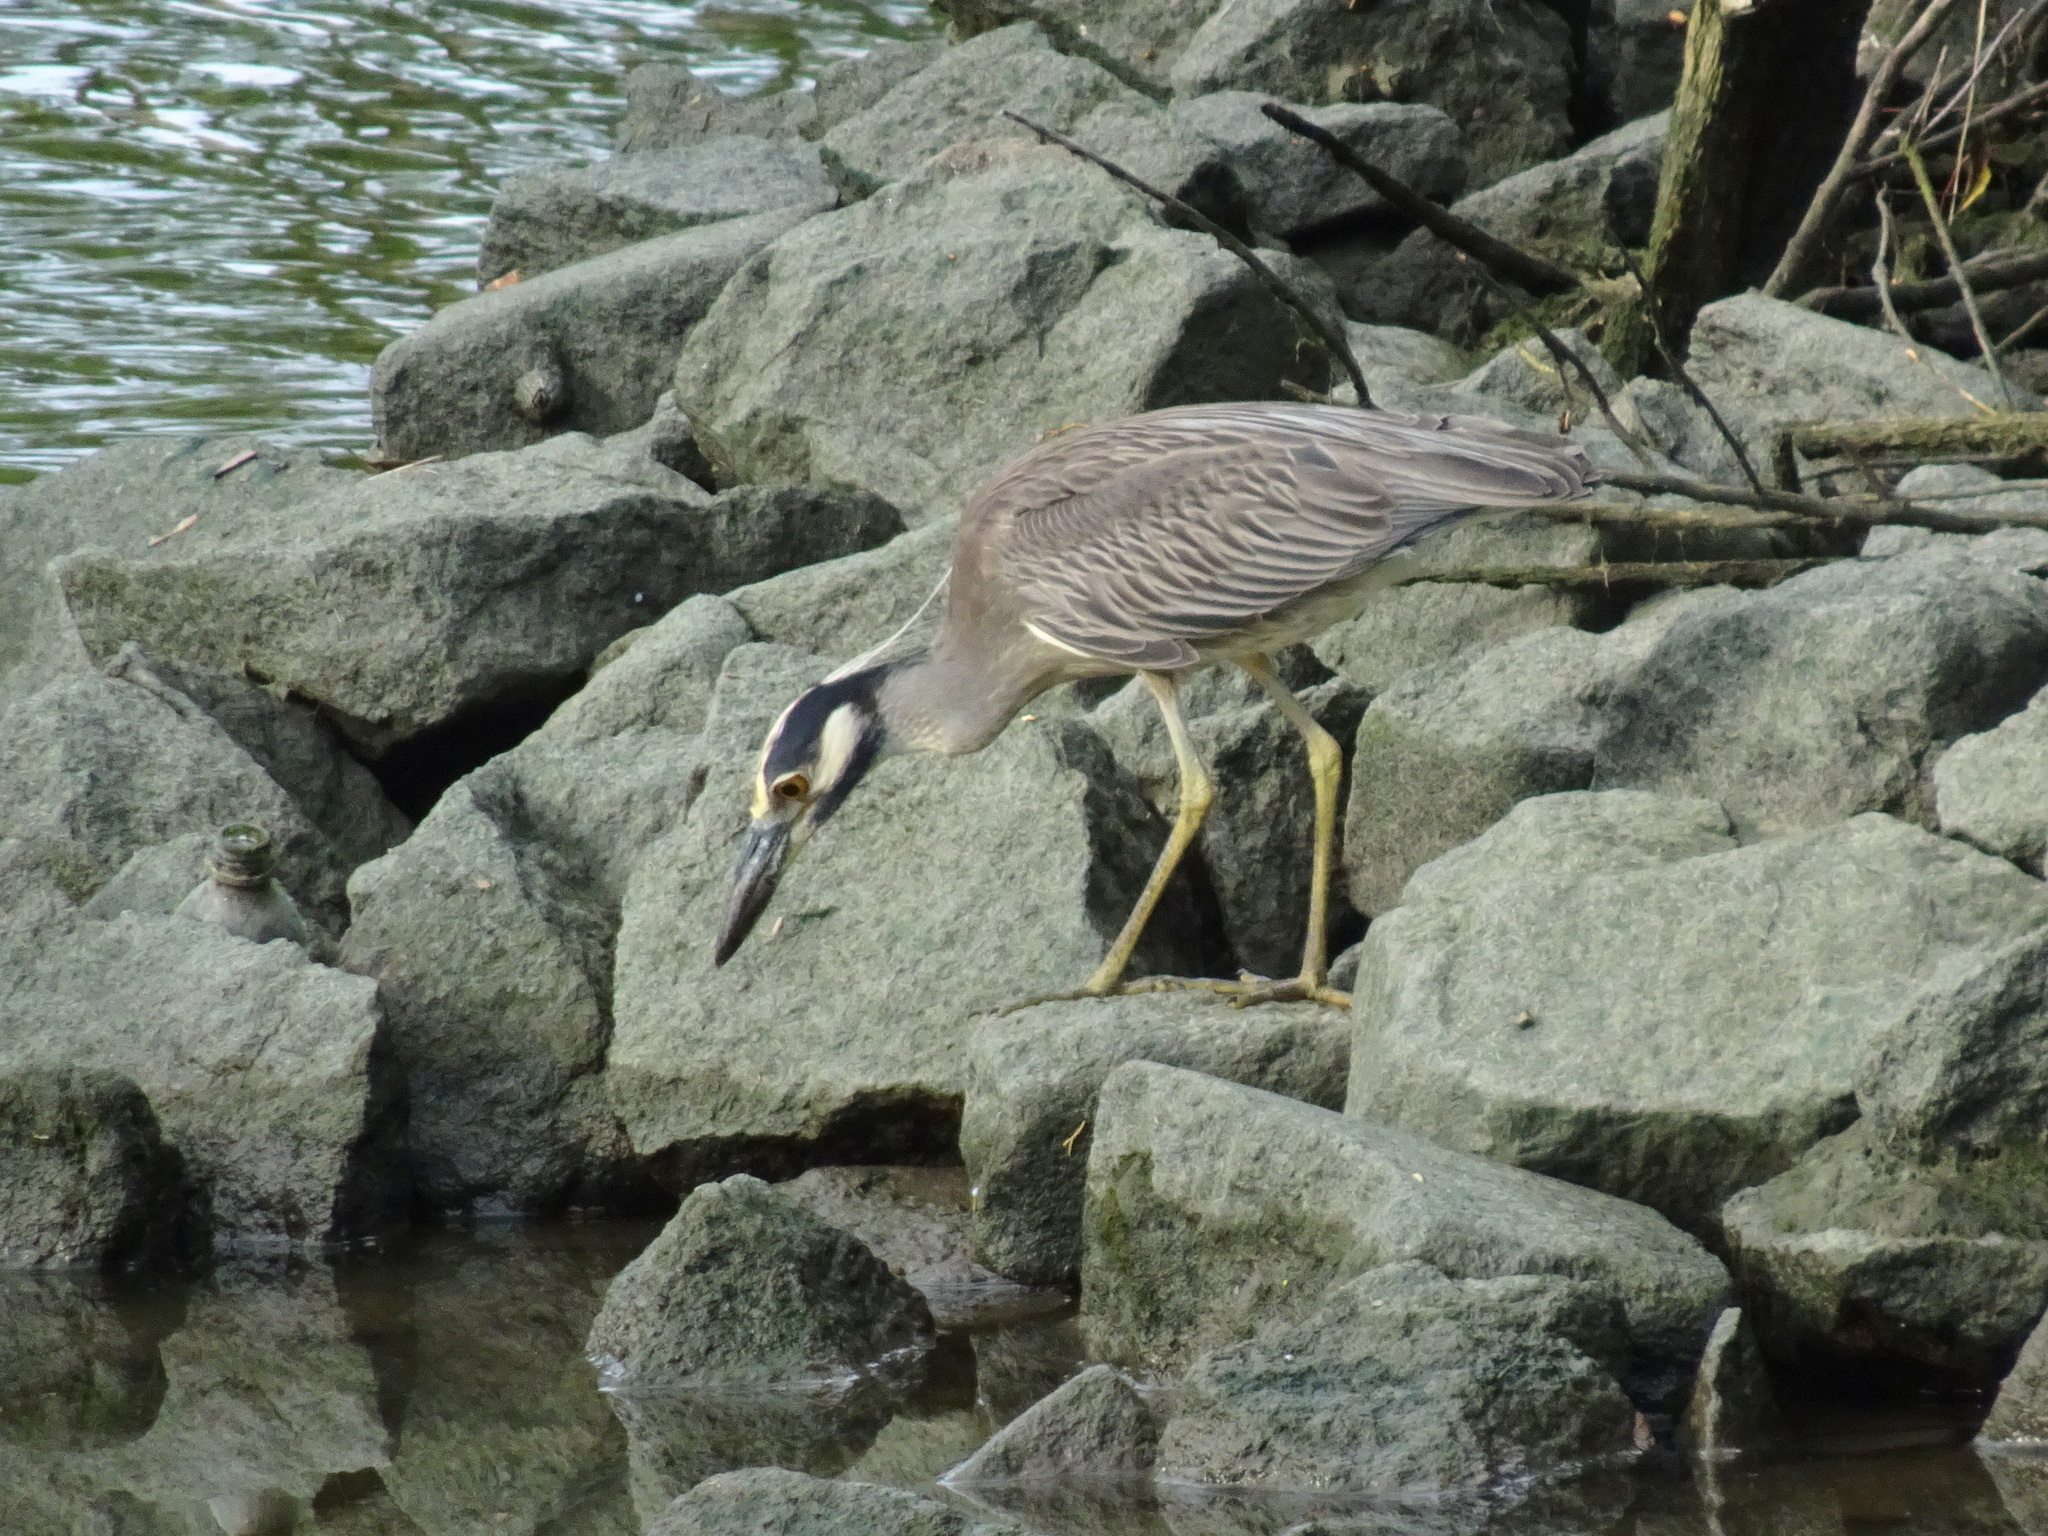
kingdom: Animalia
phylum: Chordata
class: Aves
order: Pelecaniformes
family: Ardeidae
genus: Nyctanassa
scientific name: Nyctanassa violacea
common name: Yellow-crowned night heron
